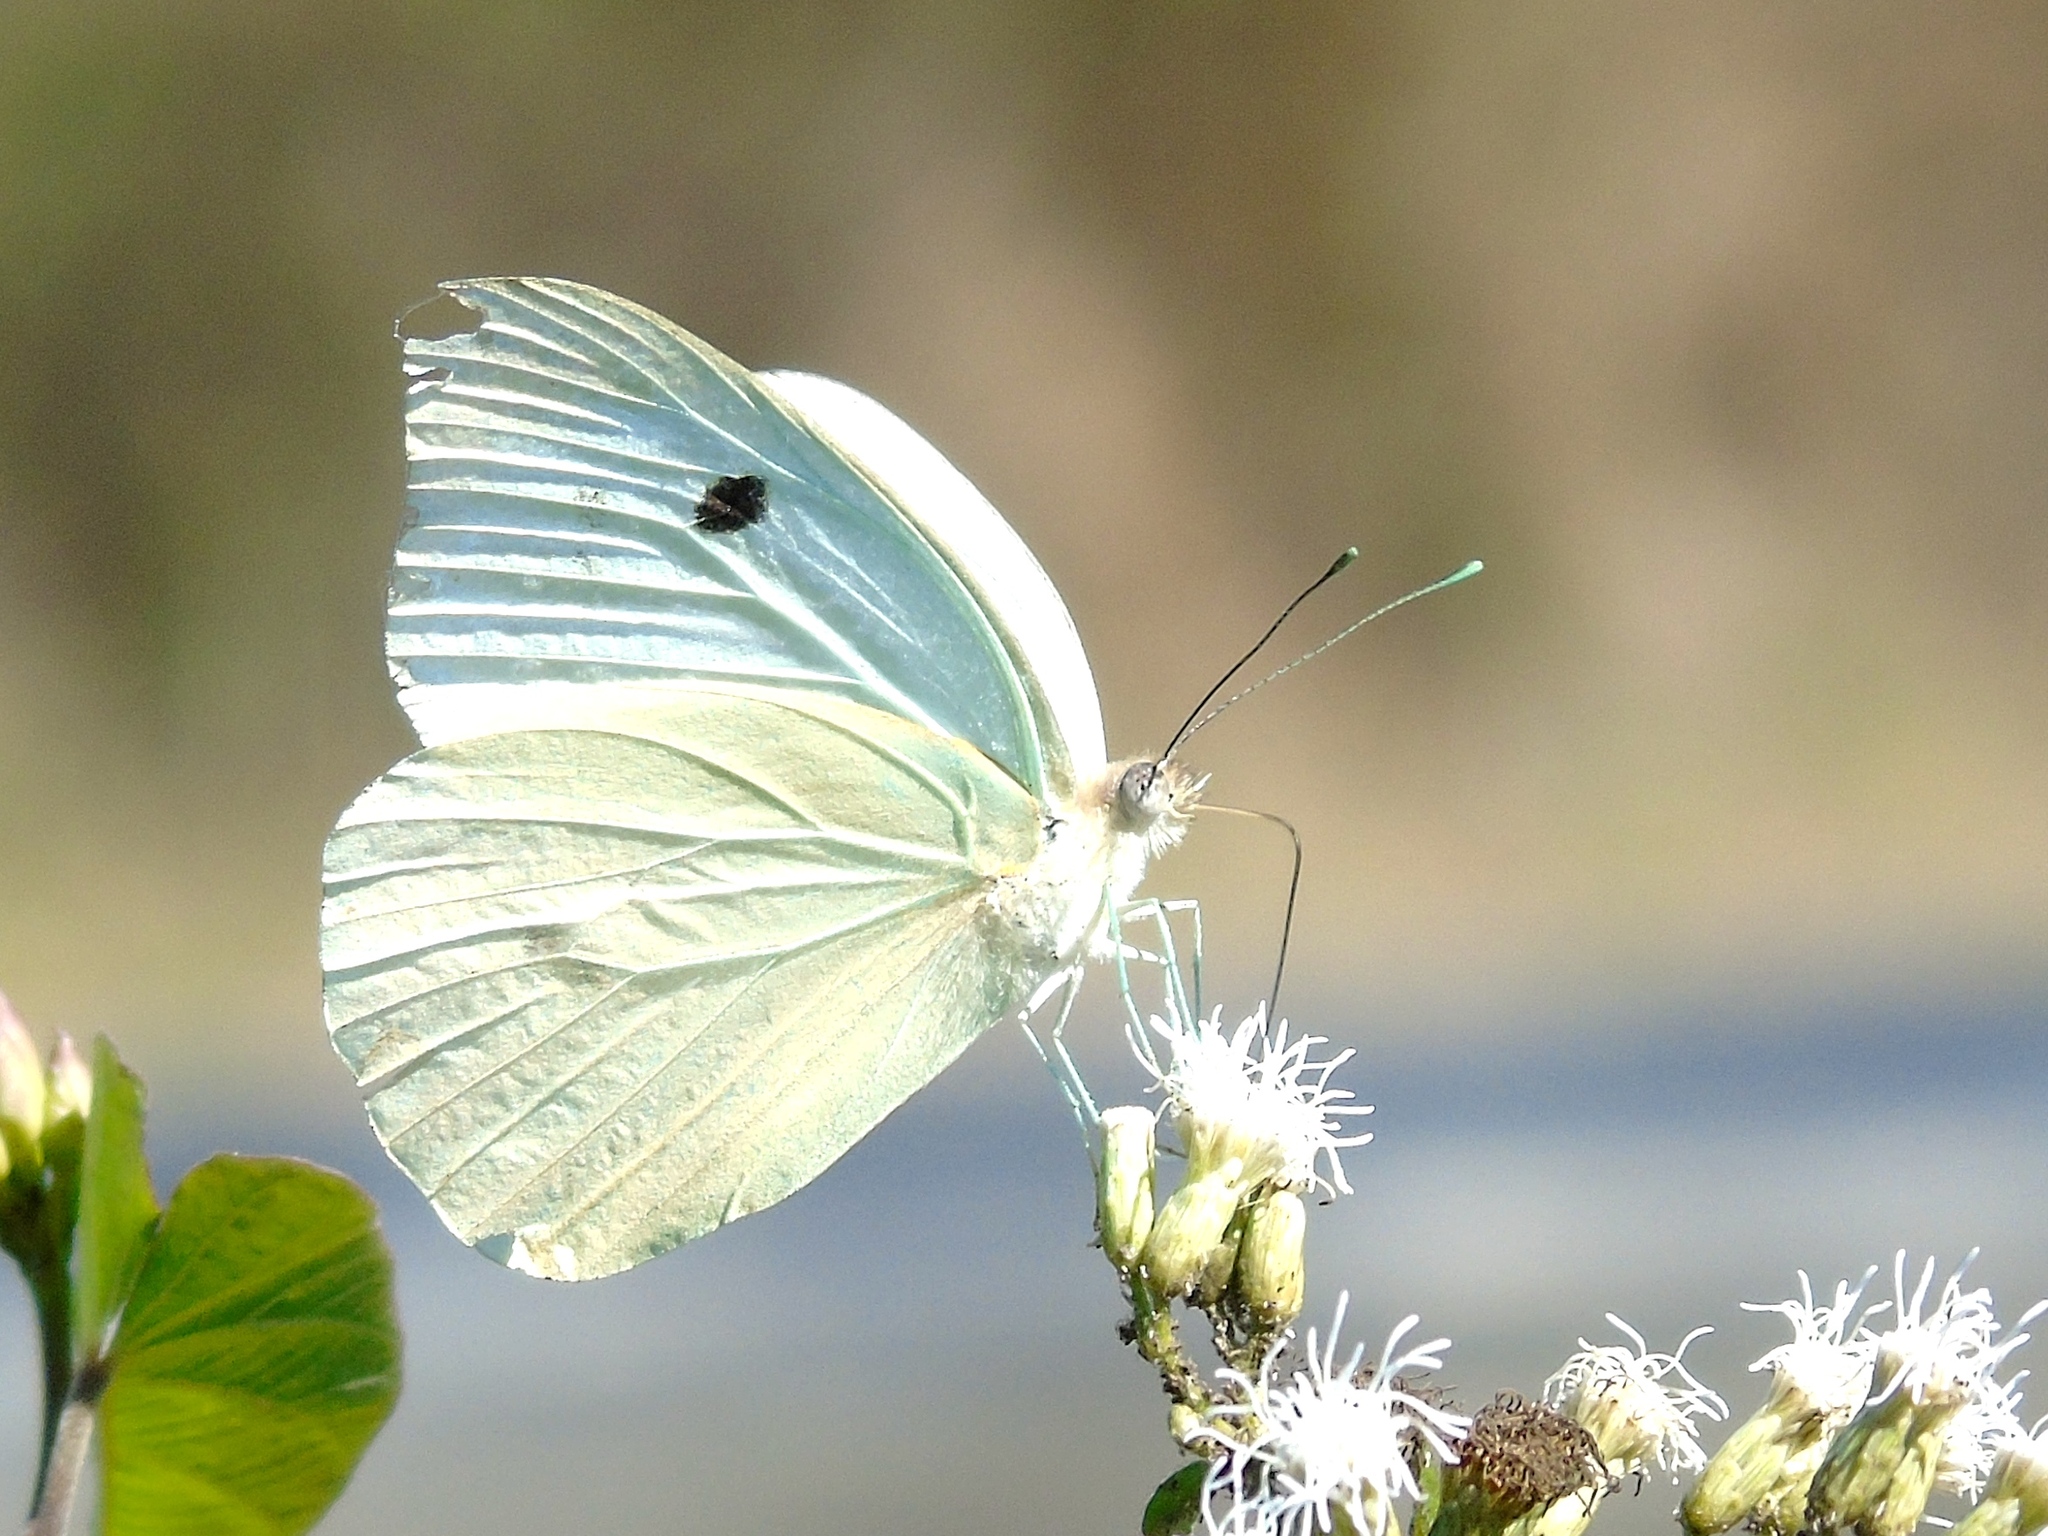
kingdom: Animalia
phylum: Arthropoda
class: Insecta
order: Lepidoptera
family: Pieridae
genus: Ganyra
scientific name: Ganyra josephina
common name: Giant white
